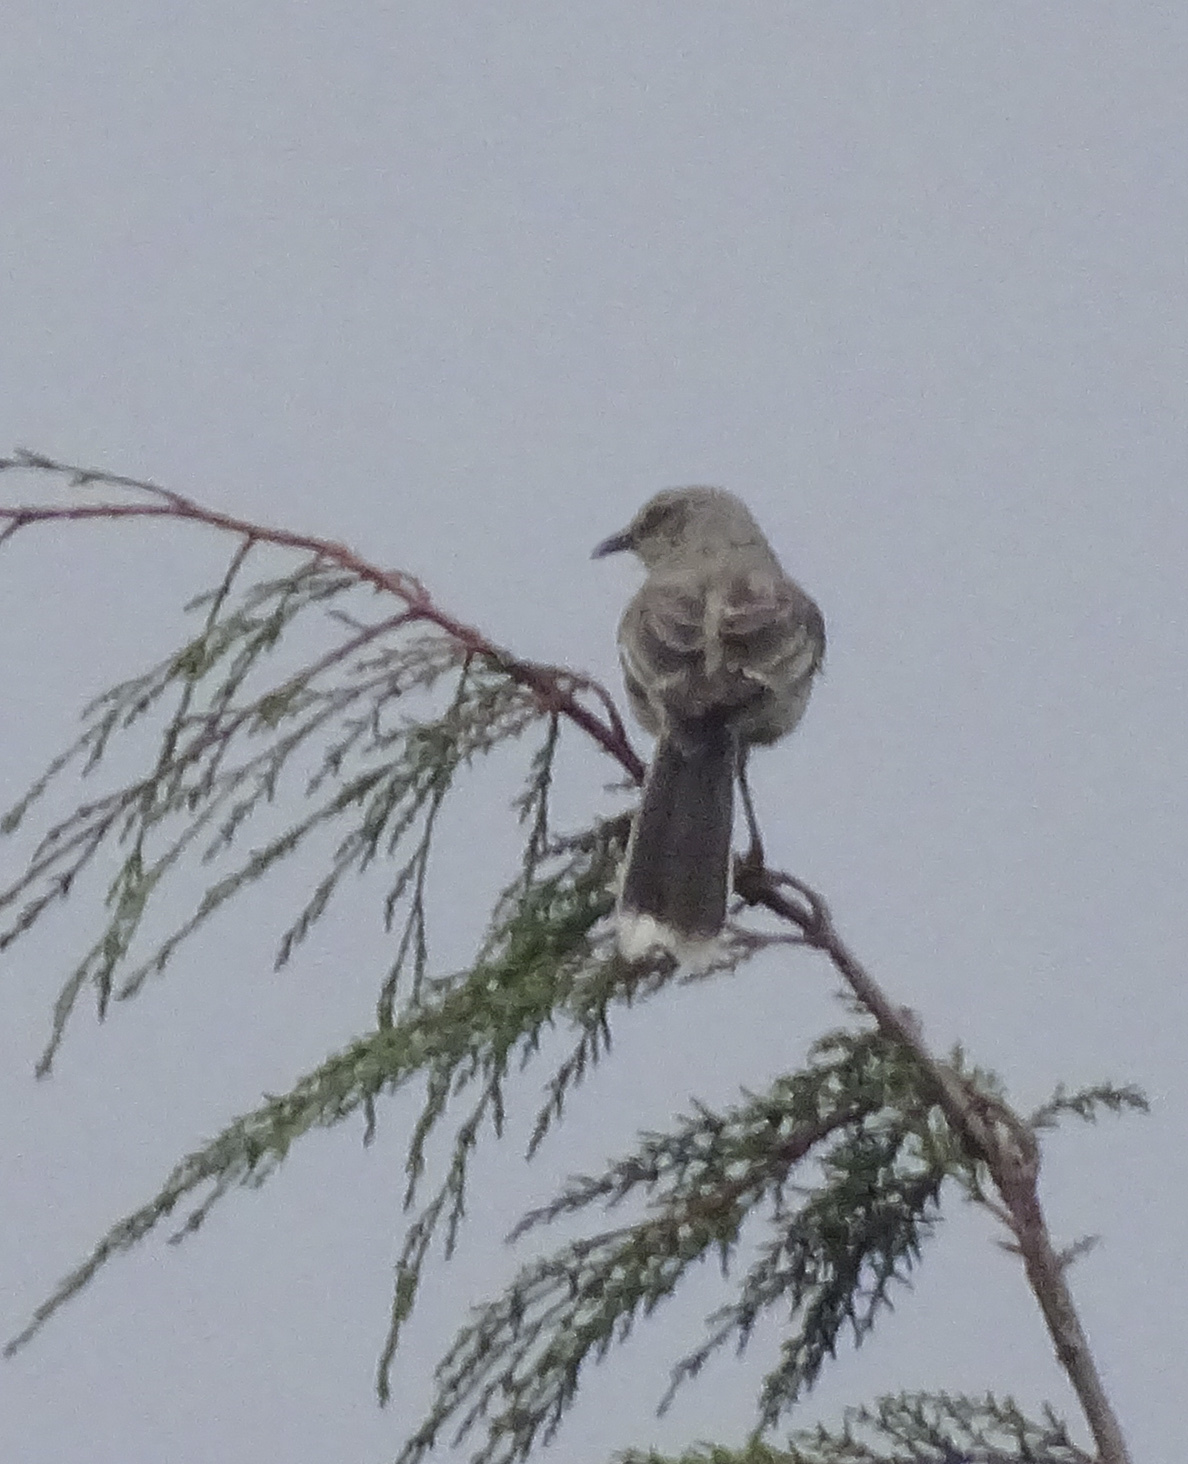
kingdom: Animalia
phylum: Chordata
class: Aves
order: Passeriformes
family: Mimidae
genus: Mimus
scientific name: Mimus gilvus
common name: Tropical mockingbird
